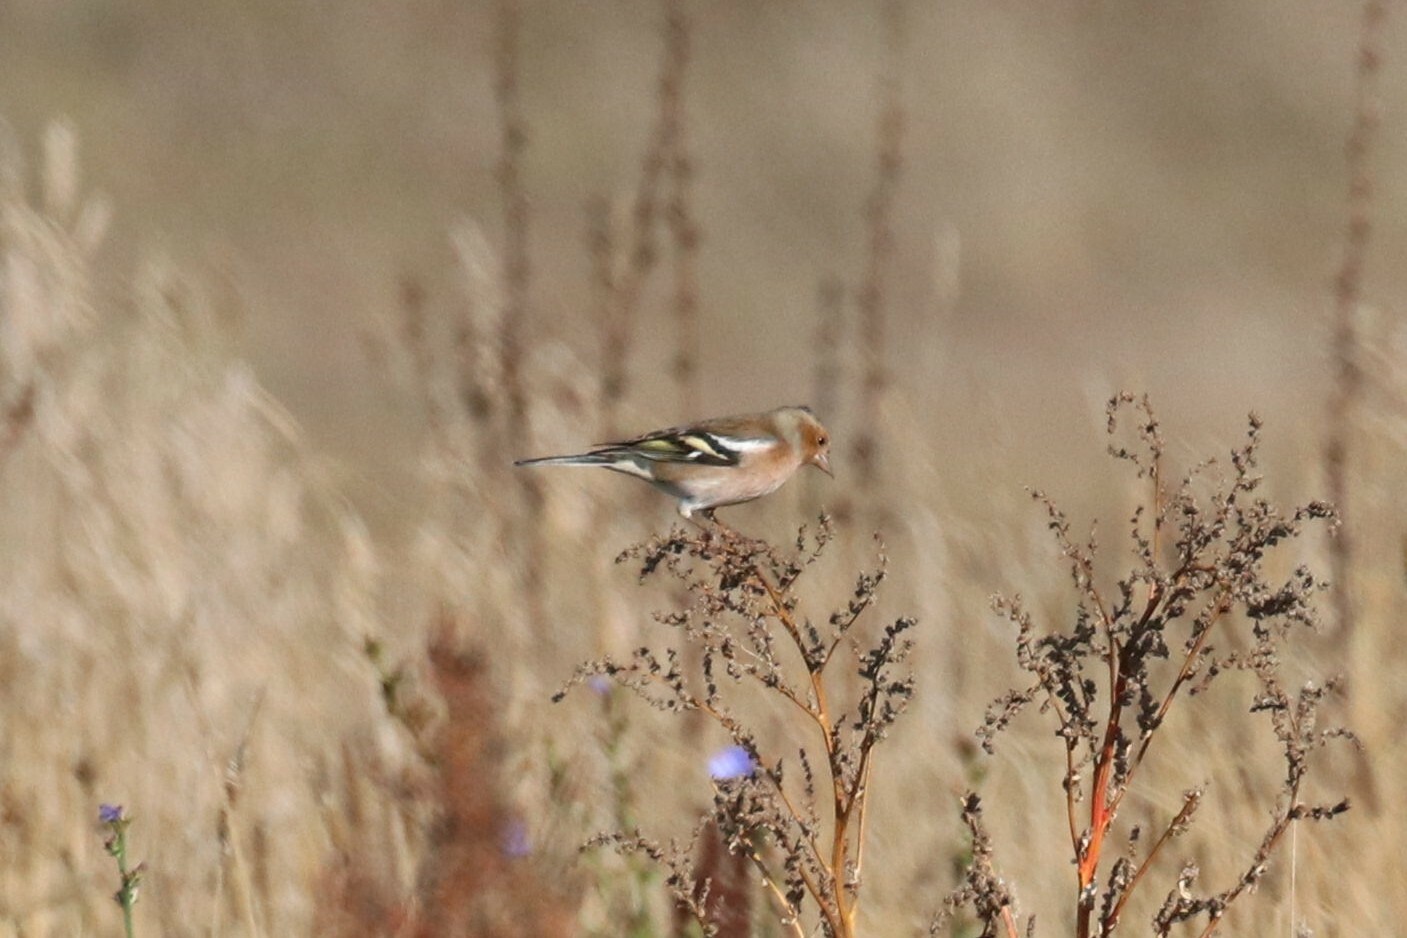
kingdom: Animalia
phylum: Chordata
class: Aves
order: Passeriformes
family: Fringillidae
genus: Fringilla
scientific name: Fringilla coelebs
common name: Common chaffinch
